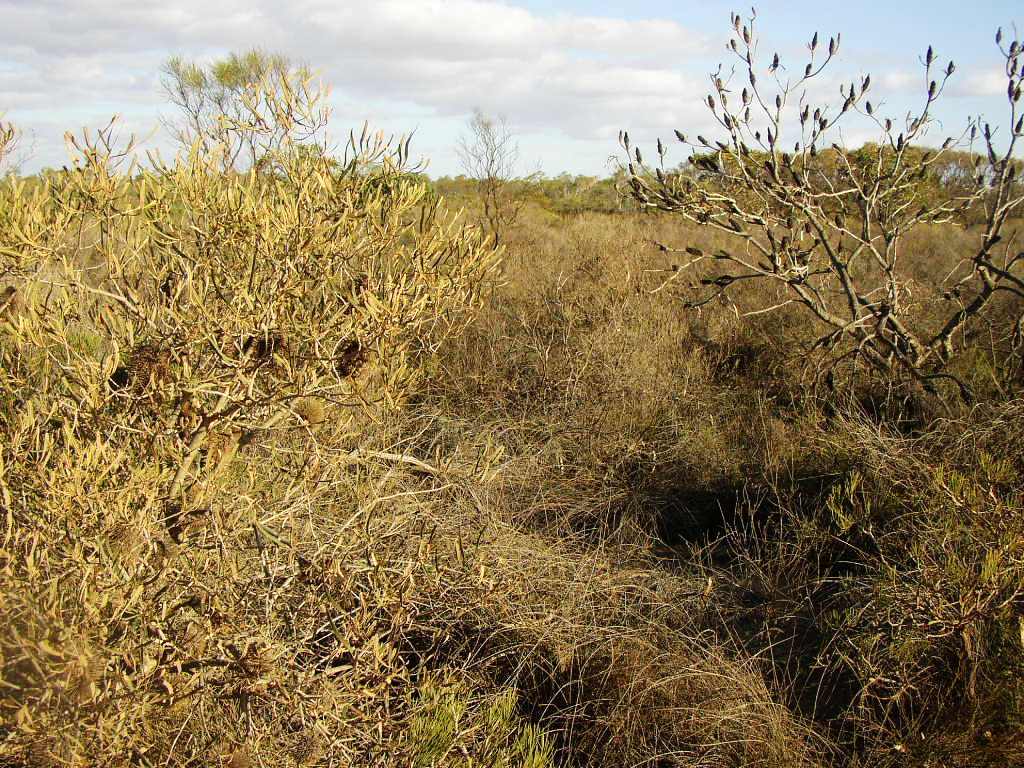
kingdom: Plantae
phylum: Tracheophyta
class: Magnoliopsida
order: Proteales
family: Proteaceae
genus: Banksia
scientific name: Banksia ashbyi
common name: Ashby's banksia
